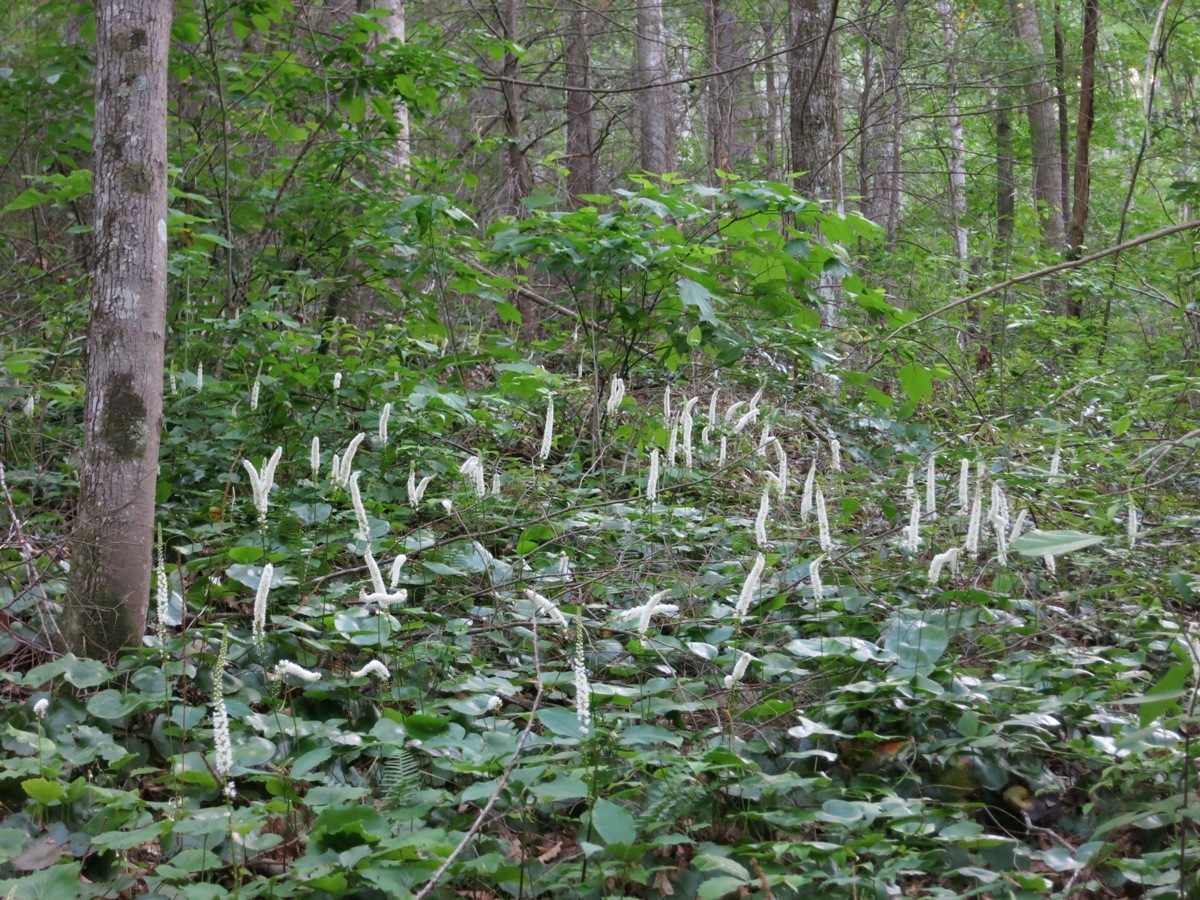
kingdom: Plantae
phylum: Tracheophyta
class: Magnoliopsida
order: Ericales
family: Diapensiaceae
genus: Galax
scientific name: Galax urceolata
